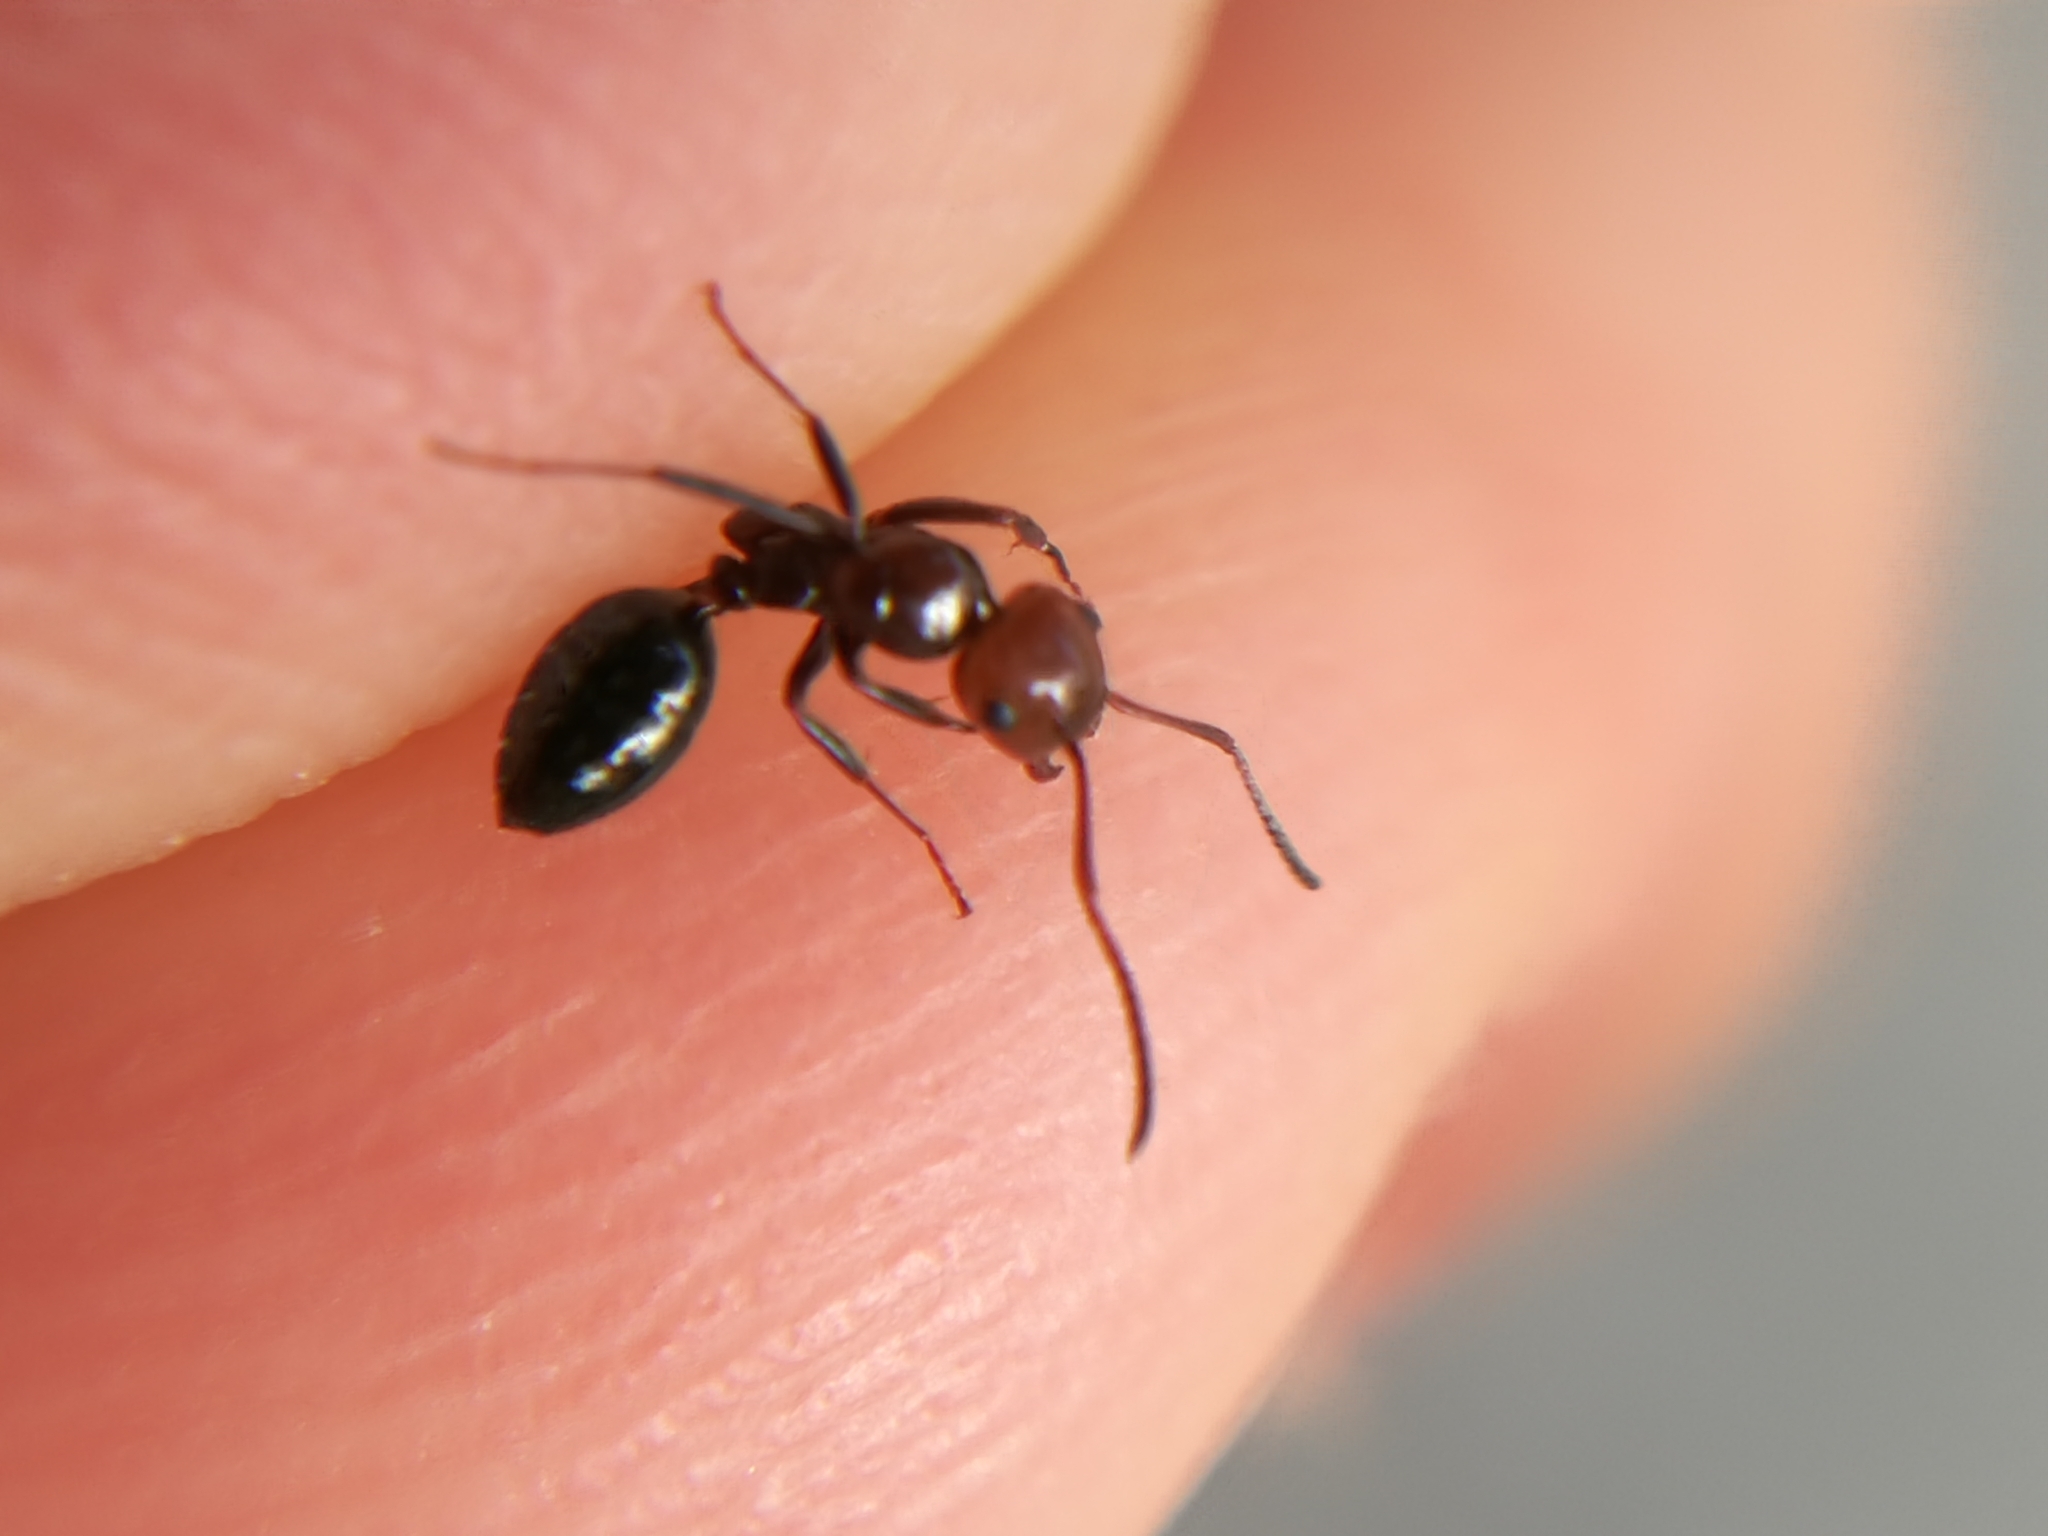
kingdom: Animalia
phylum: Arthropoda
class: Insecta
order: Hymenoptera
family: Formicidae
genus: Camponotus
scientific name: Camponotus lateralis
